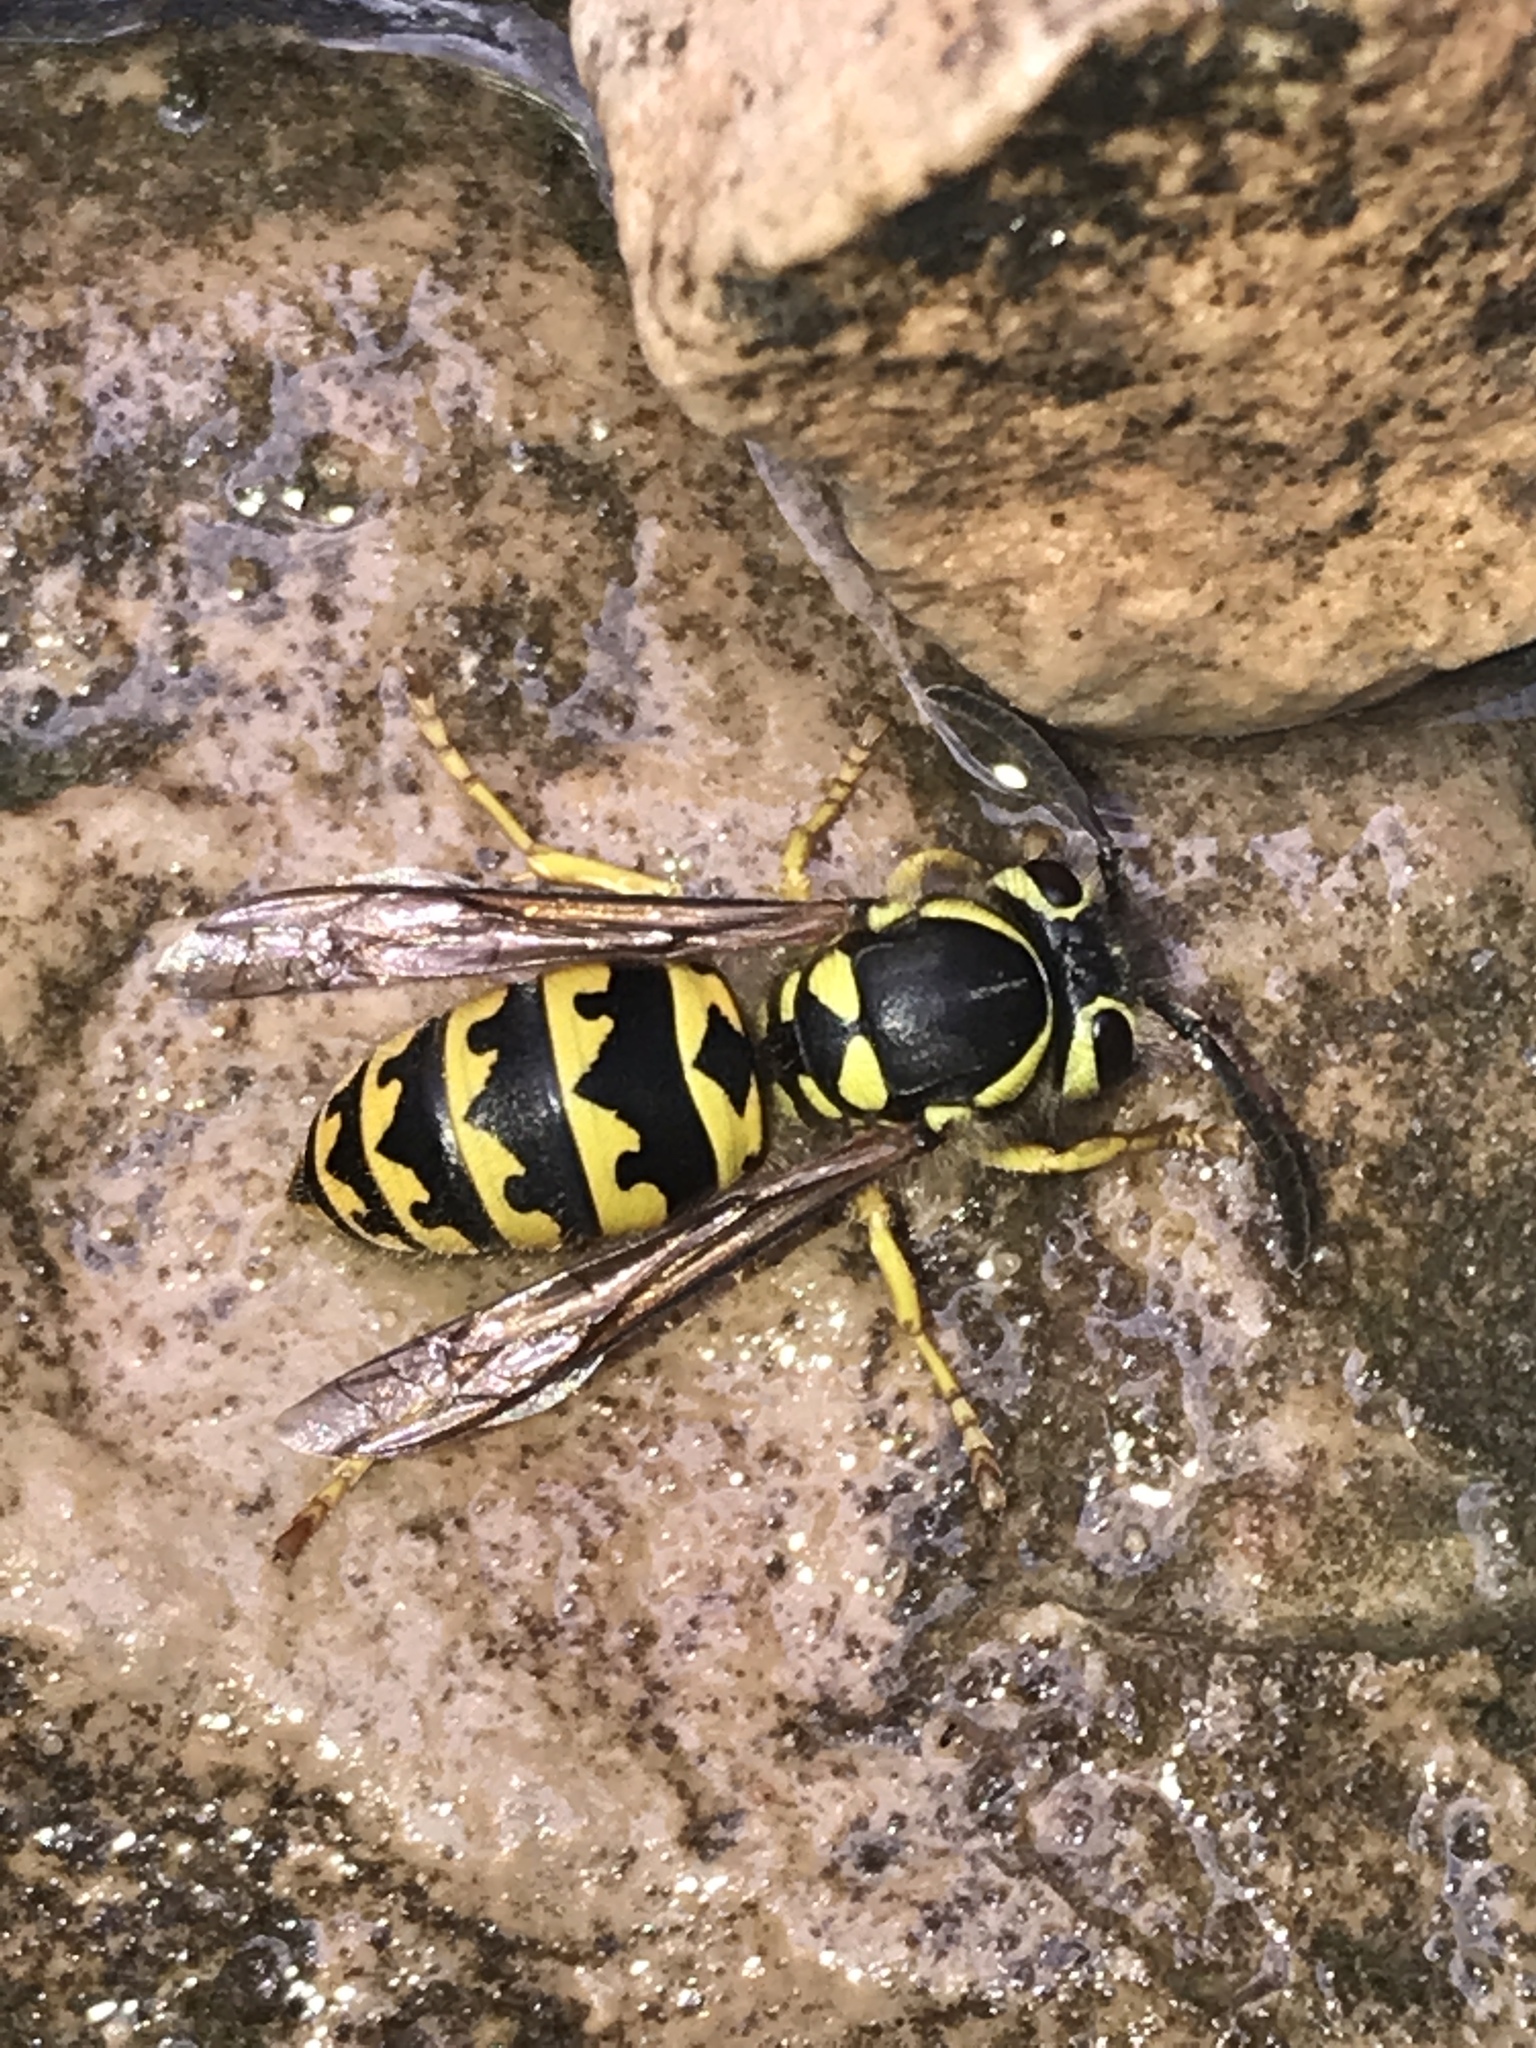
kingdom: Animalia
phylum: Arthropoda
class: Insecta
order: Hymenoptera
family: Vespidae
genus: Vespula
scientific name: Vespula pensylvanica
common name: Western yellowjacket
